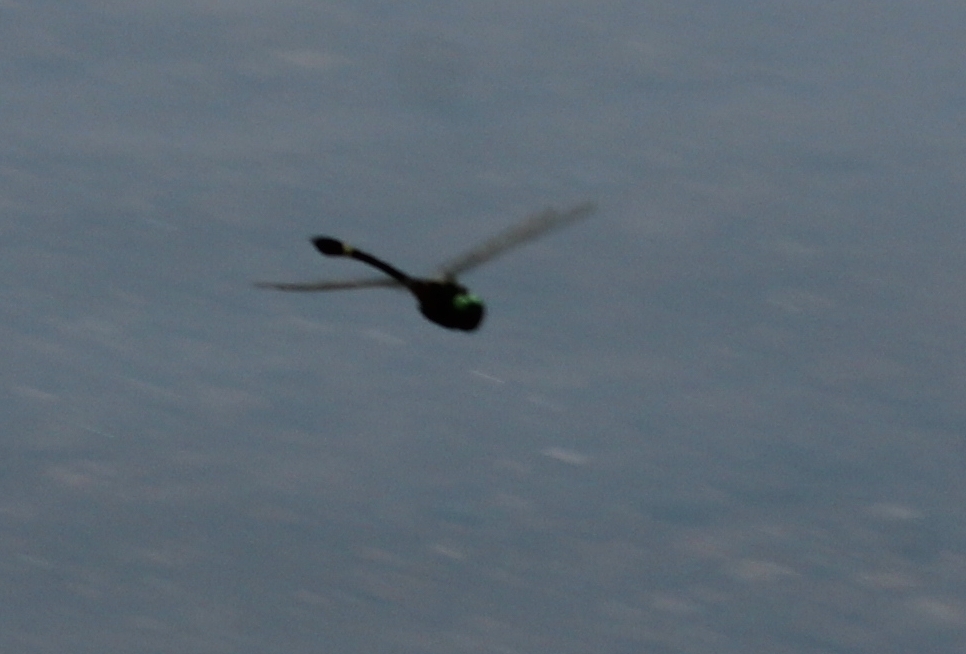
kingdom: Animalia
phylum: Arthropoda
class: Insecta
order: Odonata
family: Macromiidae
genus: Macromia
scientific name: Macromia illinoiensis
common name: Swift river cruiser
